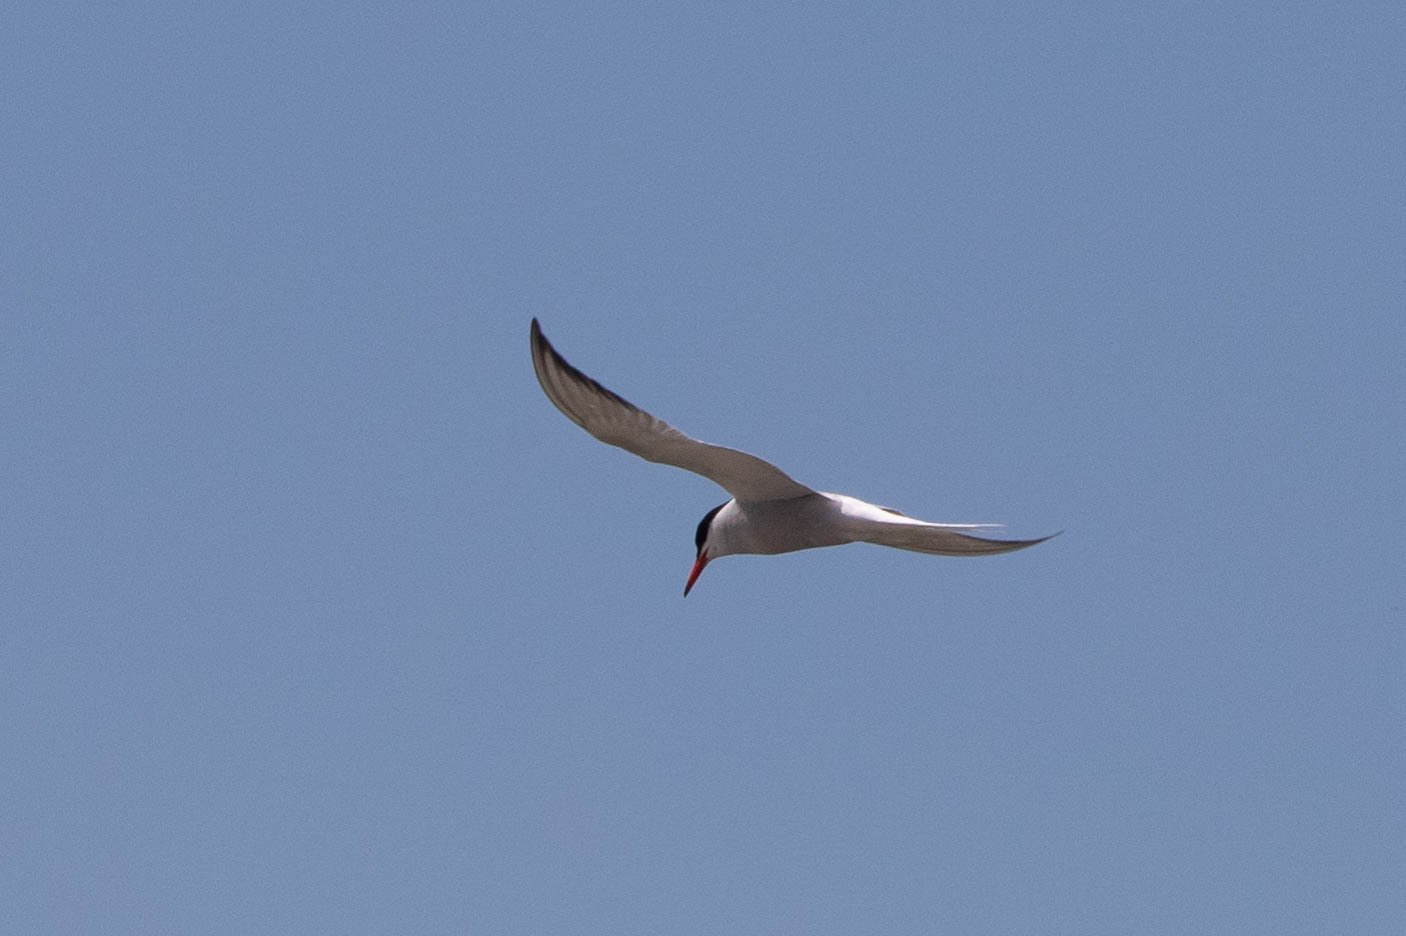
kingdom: Animalia
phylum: Chordata
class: Aves
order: Charadriiformes
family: Laridae
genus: Sterna
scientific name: Sterna hirundo
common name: Common tern
